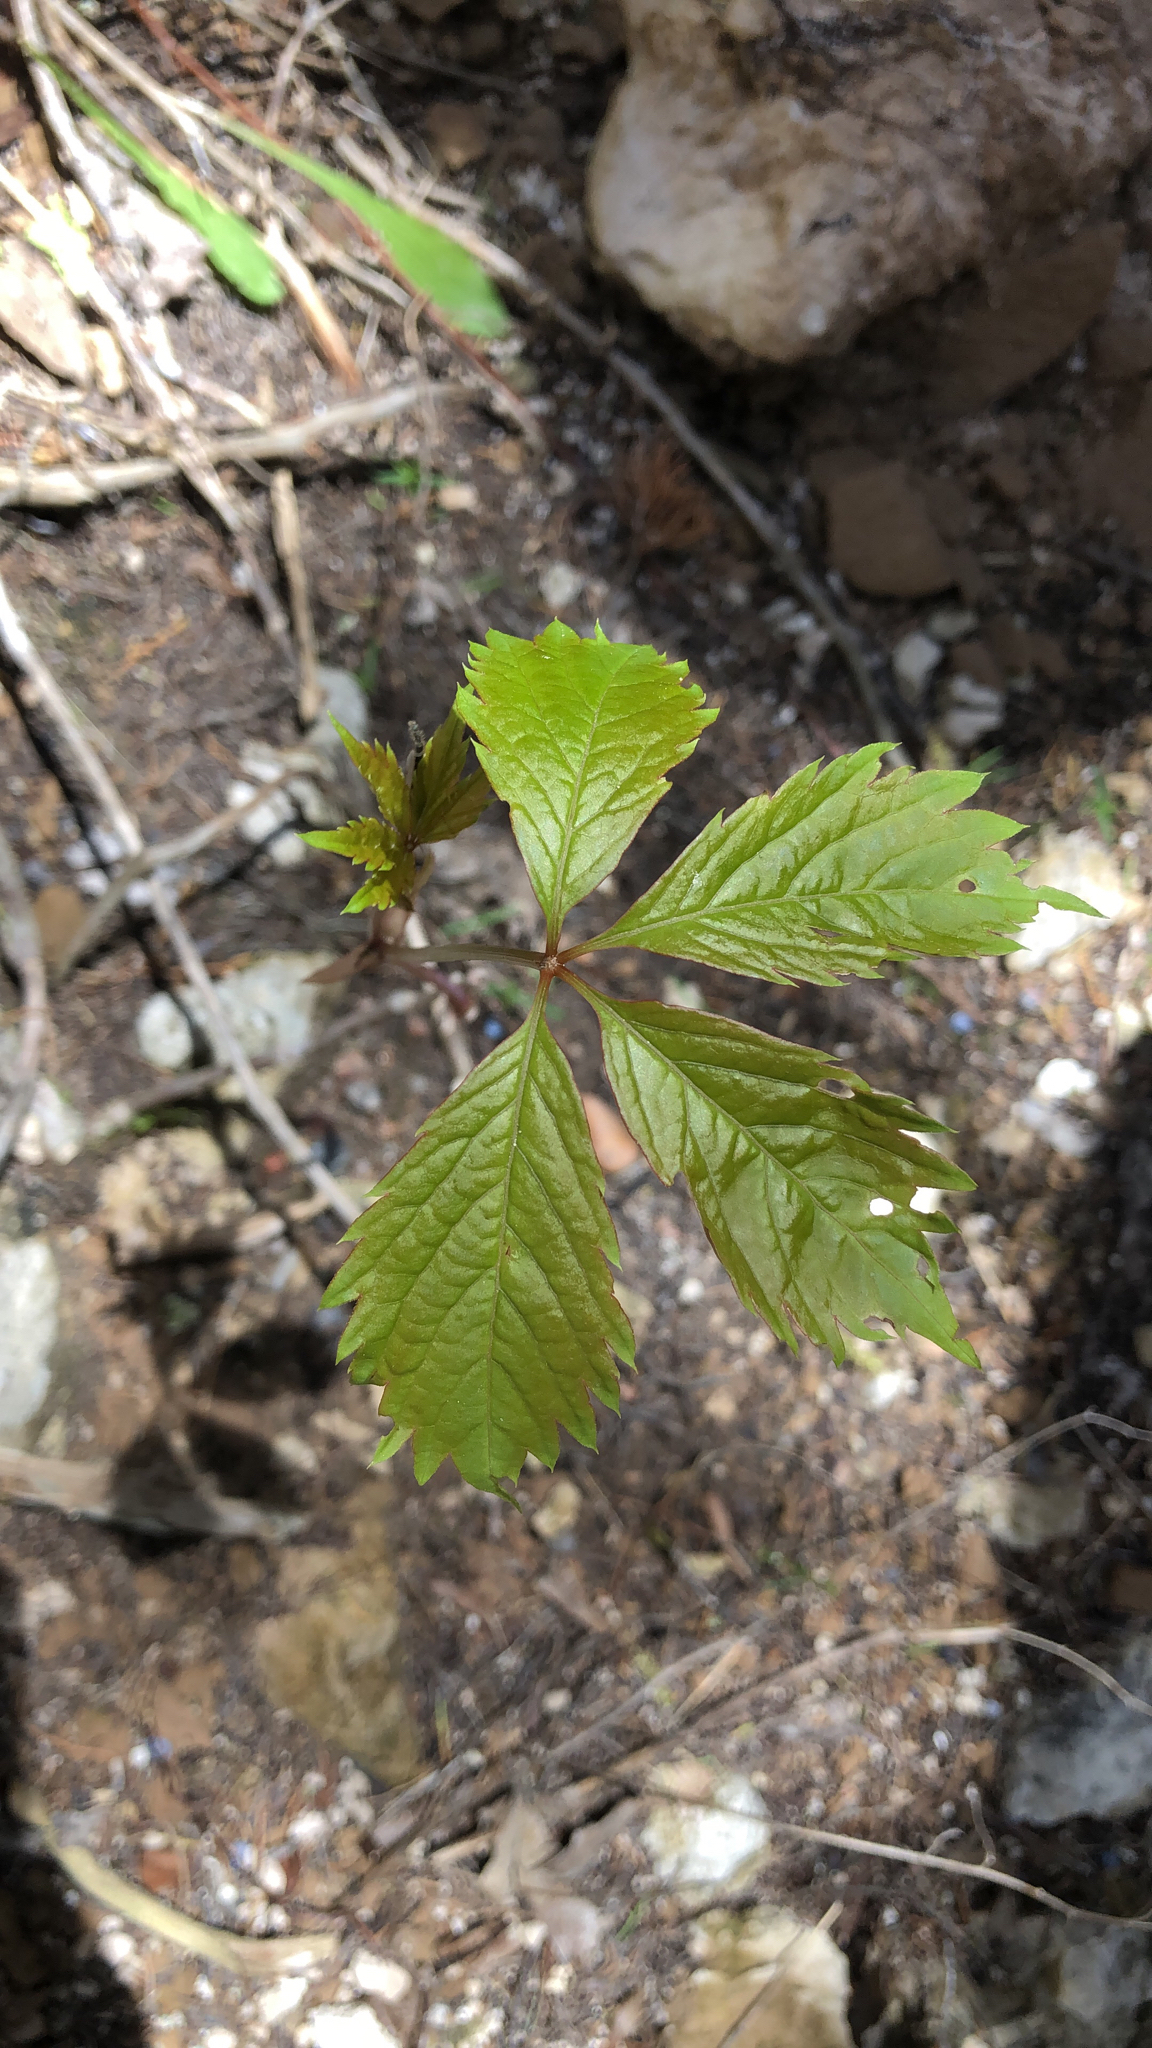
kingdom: Plantae
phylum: Tracheophyta
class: Magnoliopsida
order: Vitales
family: Vitaceae
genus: Parthenocissus
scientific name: Parthenocissus quinquefolia
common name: Virginia-creeper
